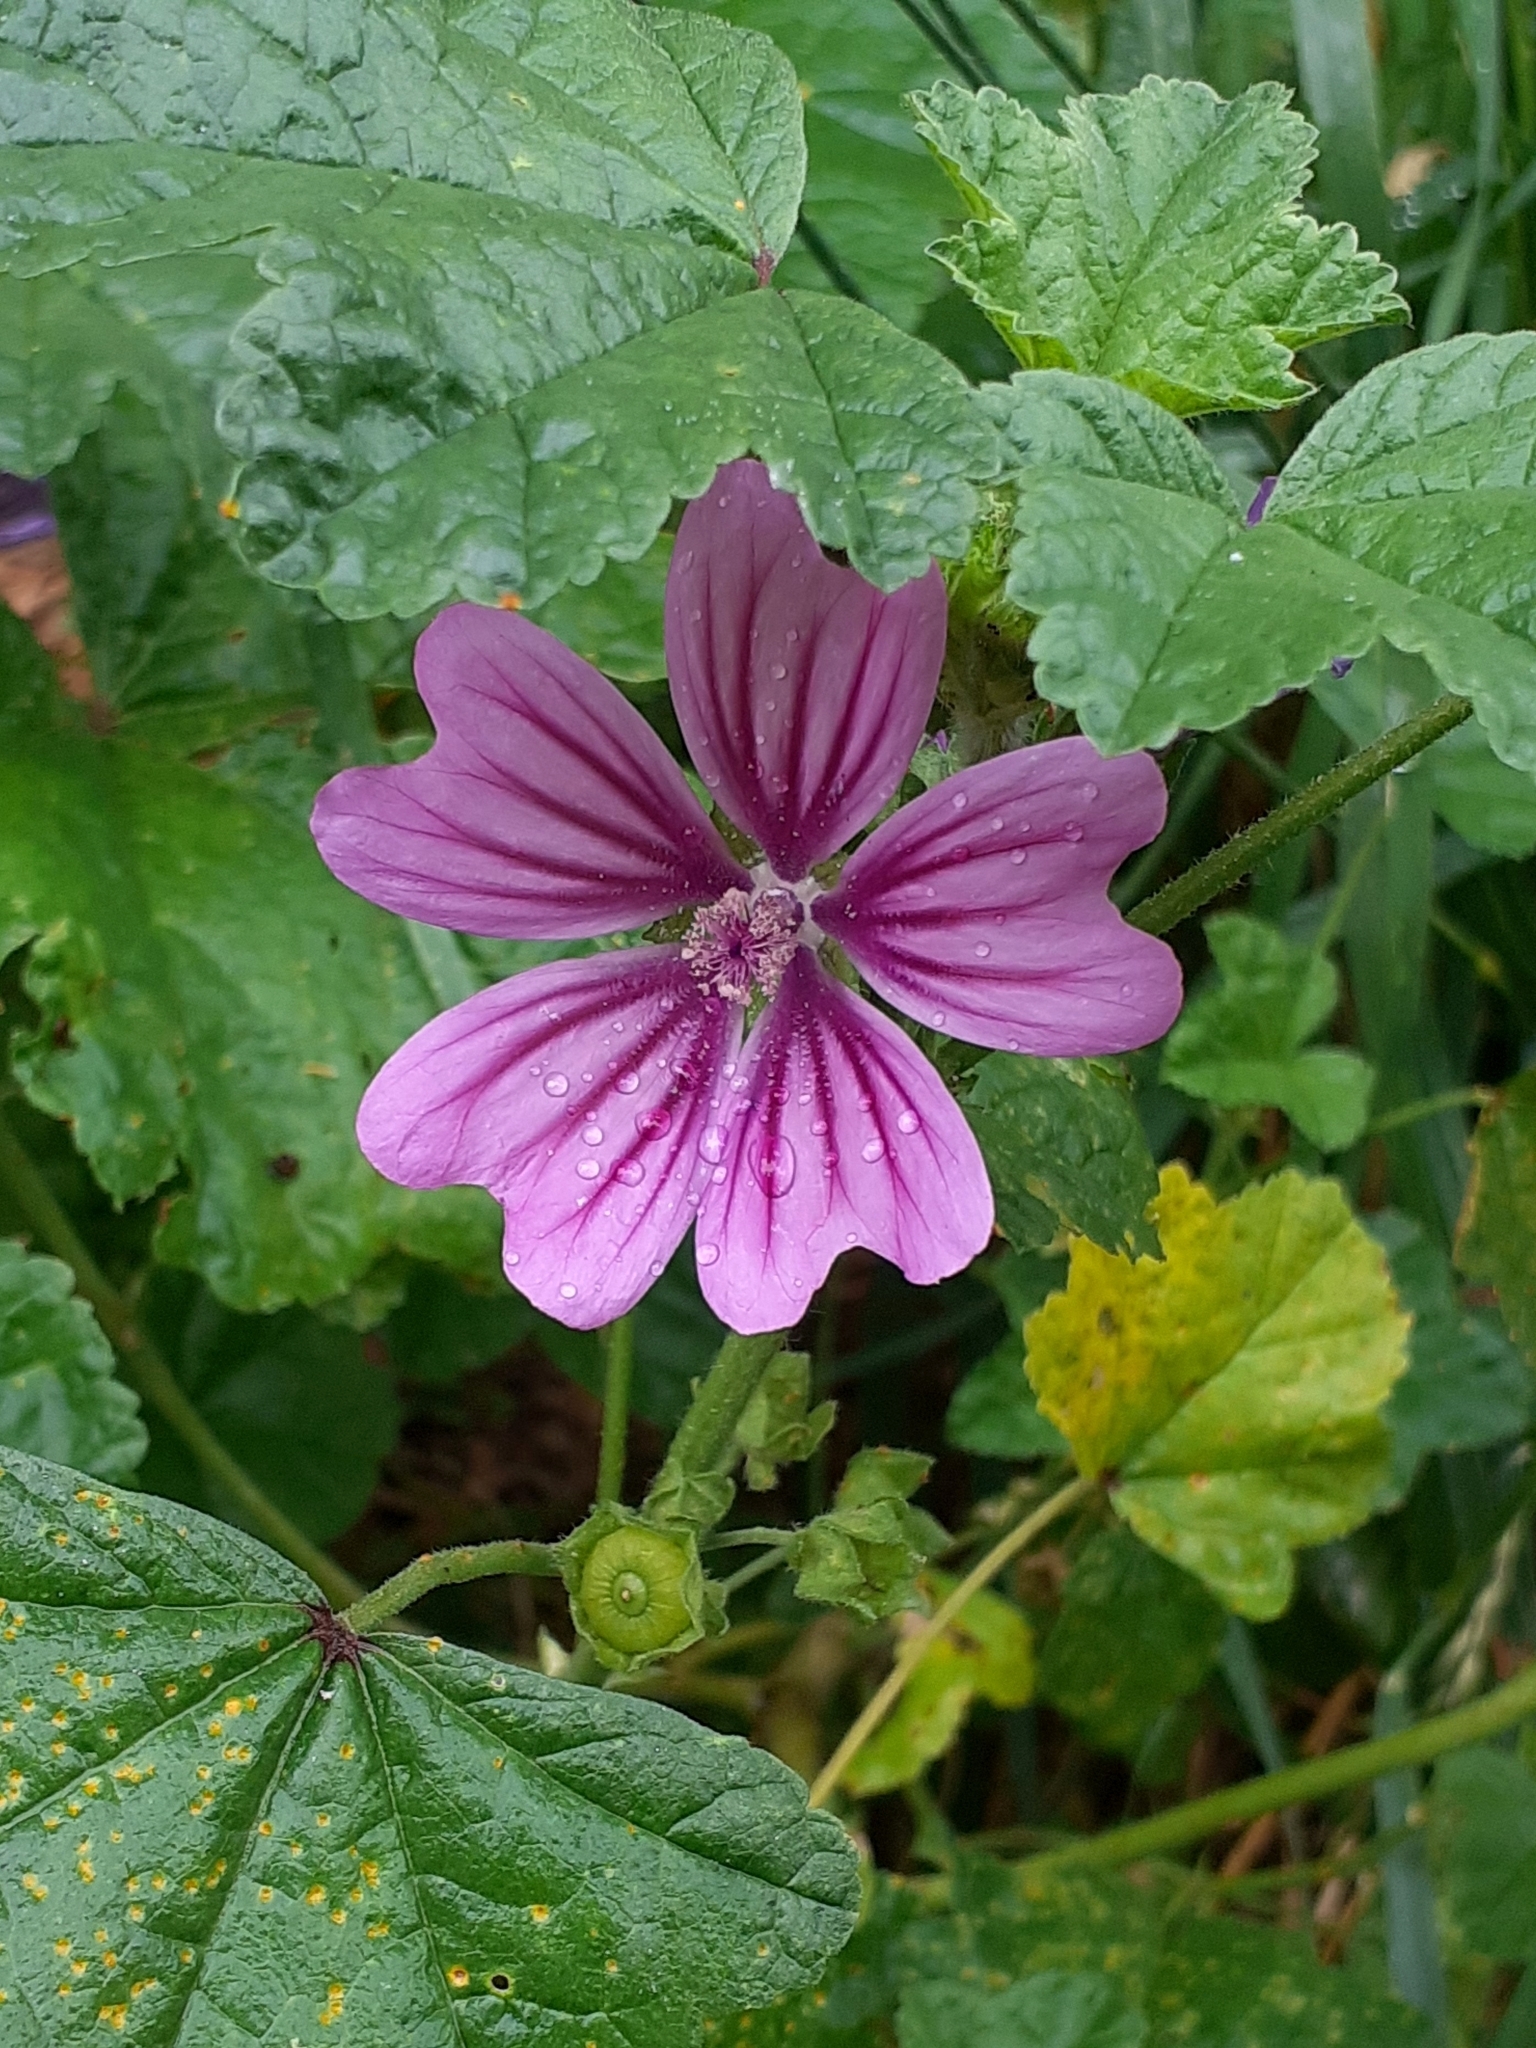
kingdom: Plantae
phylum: Tracheophyta
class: Magnoliopsida
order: Malvales
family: Malvaceae
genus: Malva
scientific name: Malva sylvestris
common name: Common mallow
